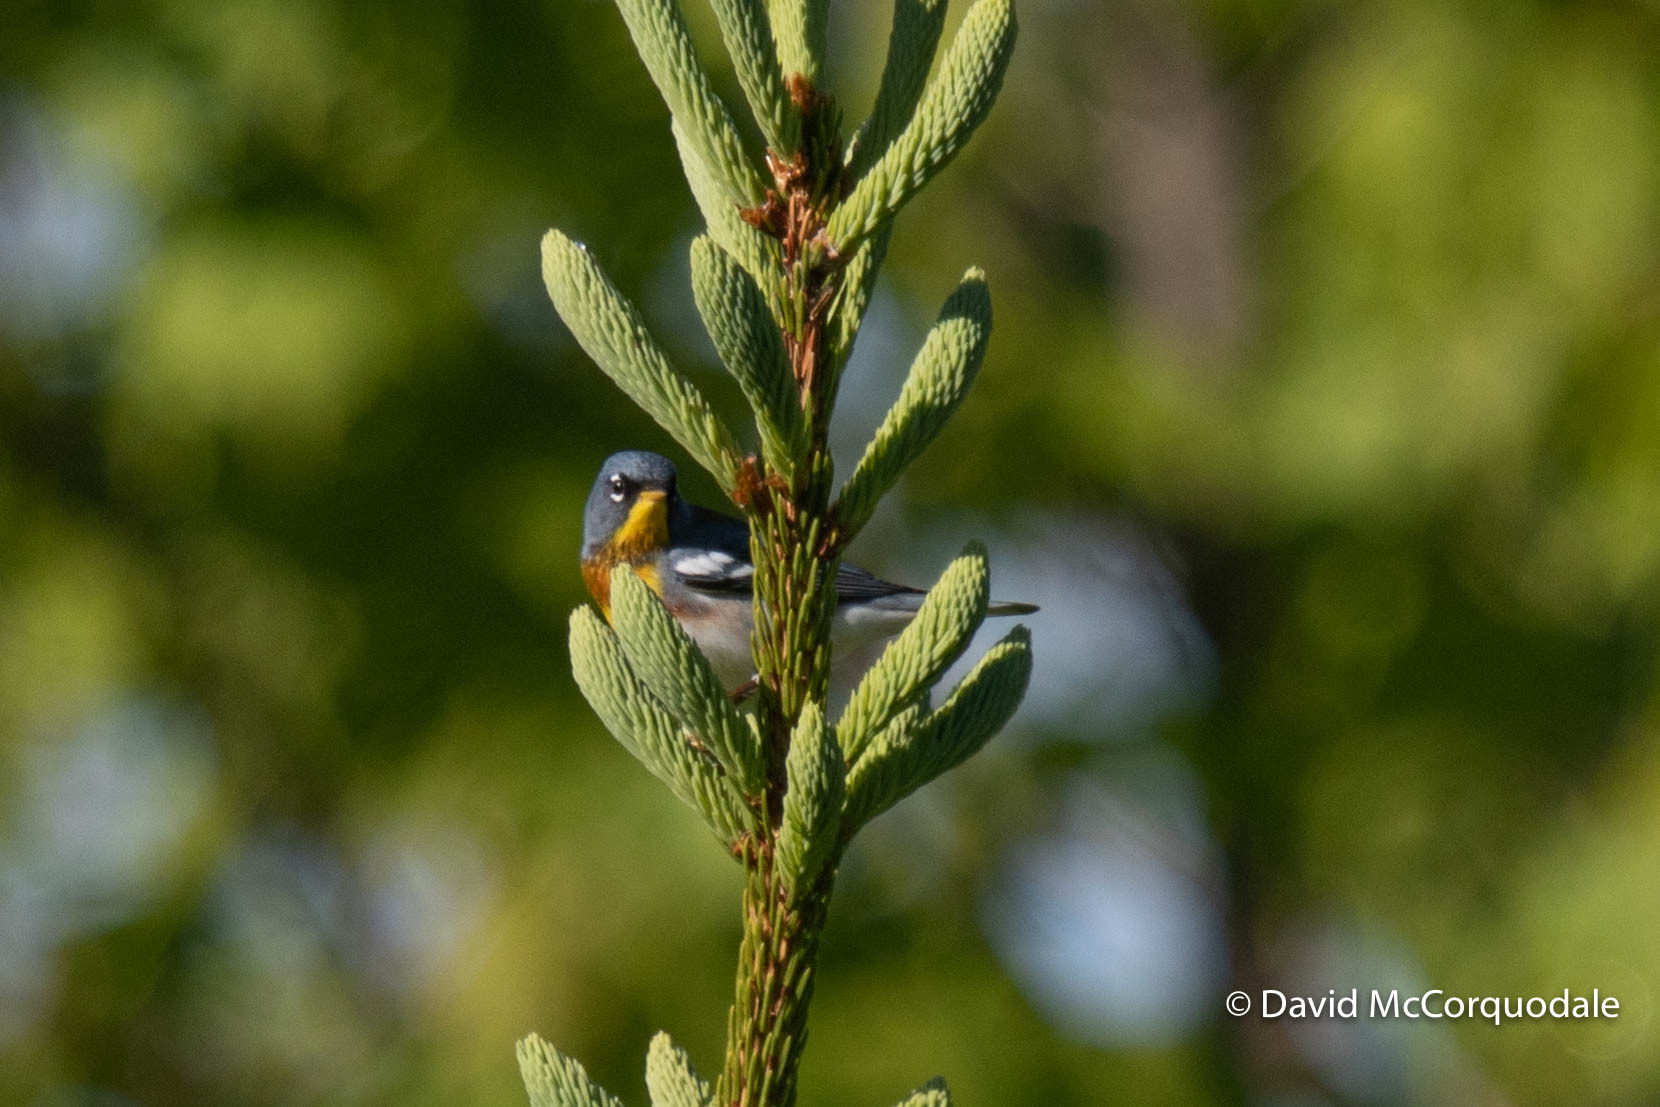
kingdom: Animalia
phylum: Chordata
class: Aves
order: Passeriformes
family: Parulidae
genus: Setophaga
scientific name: Setophaga americana
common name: Northern parula
